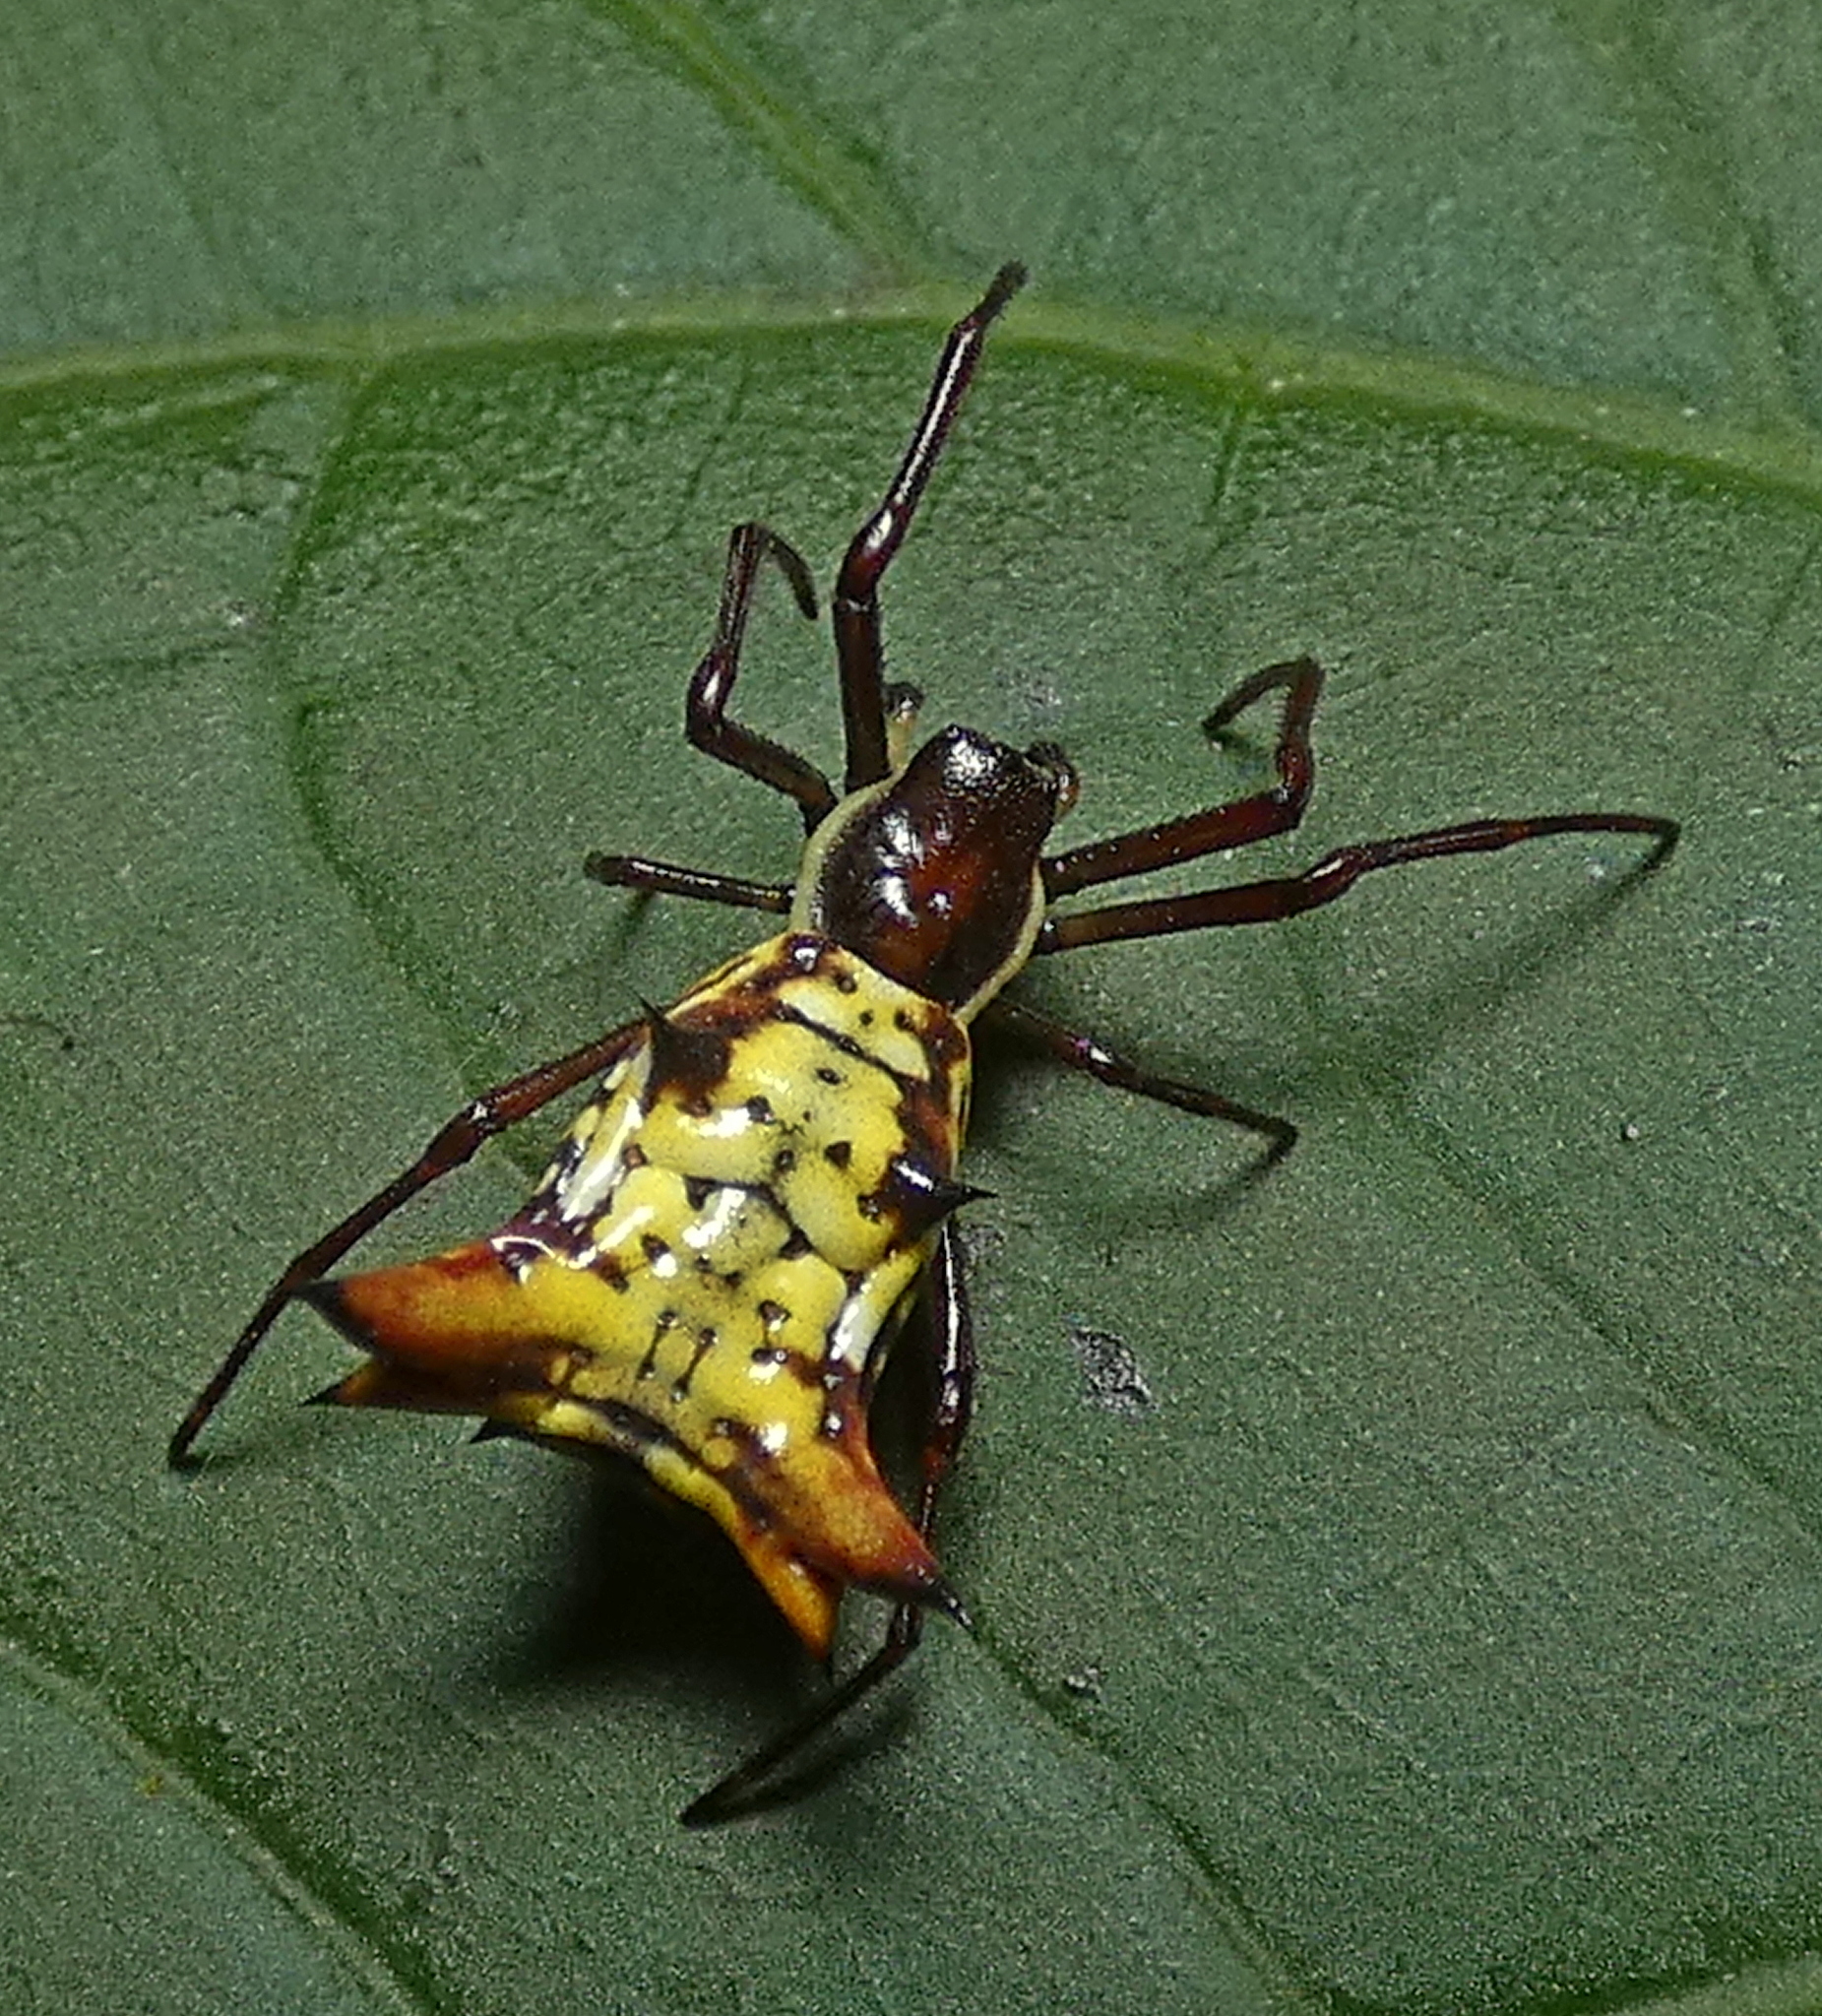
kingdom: Animalia
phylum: Arthropoda
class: Arachnida
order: Araneae
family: Araneidae
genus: Micrathena
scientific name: Micrathena fissispina
